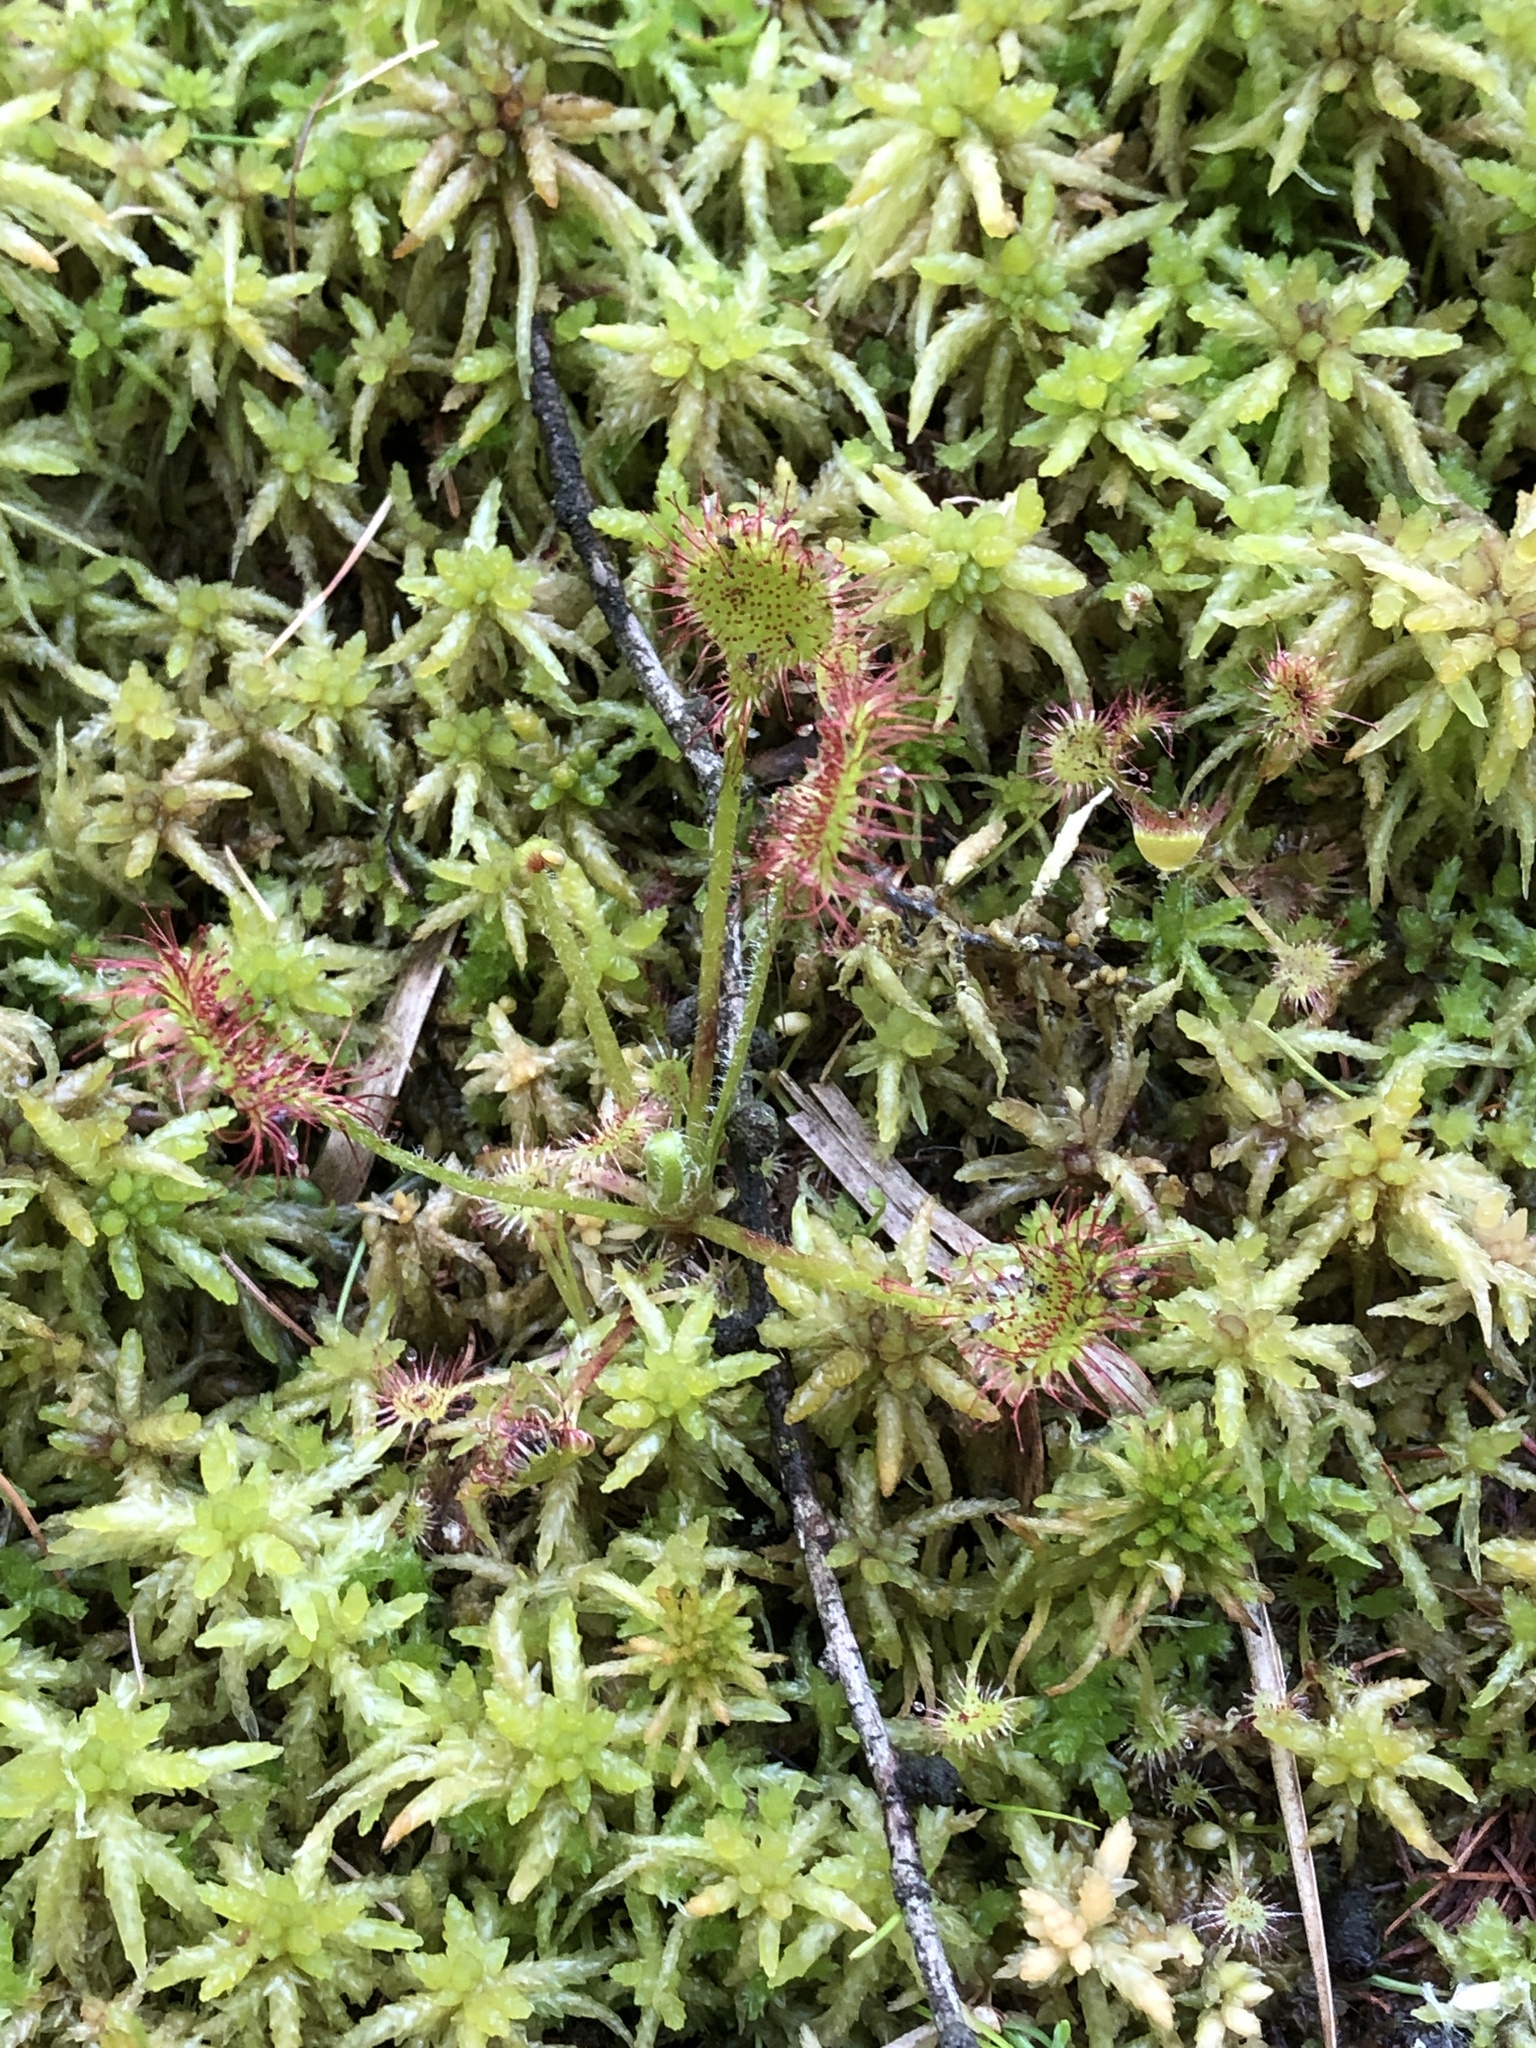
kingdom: Plantae
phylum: Tracheophyta
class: Magnoliopsida
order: Caryophyllales
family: Droseraceae
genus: Drosera
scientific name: Drosera rotundifolia
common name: Round-leaved sundew
